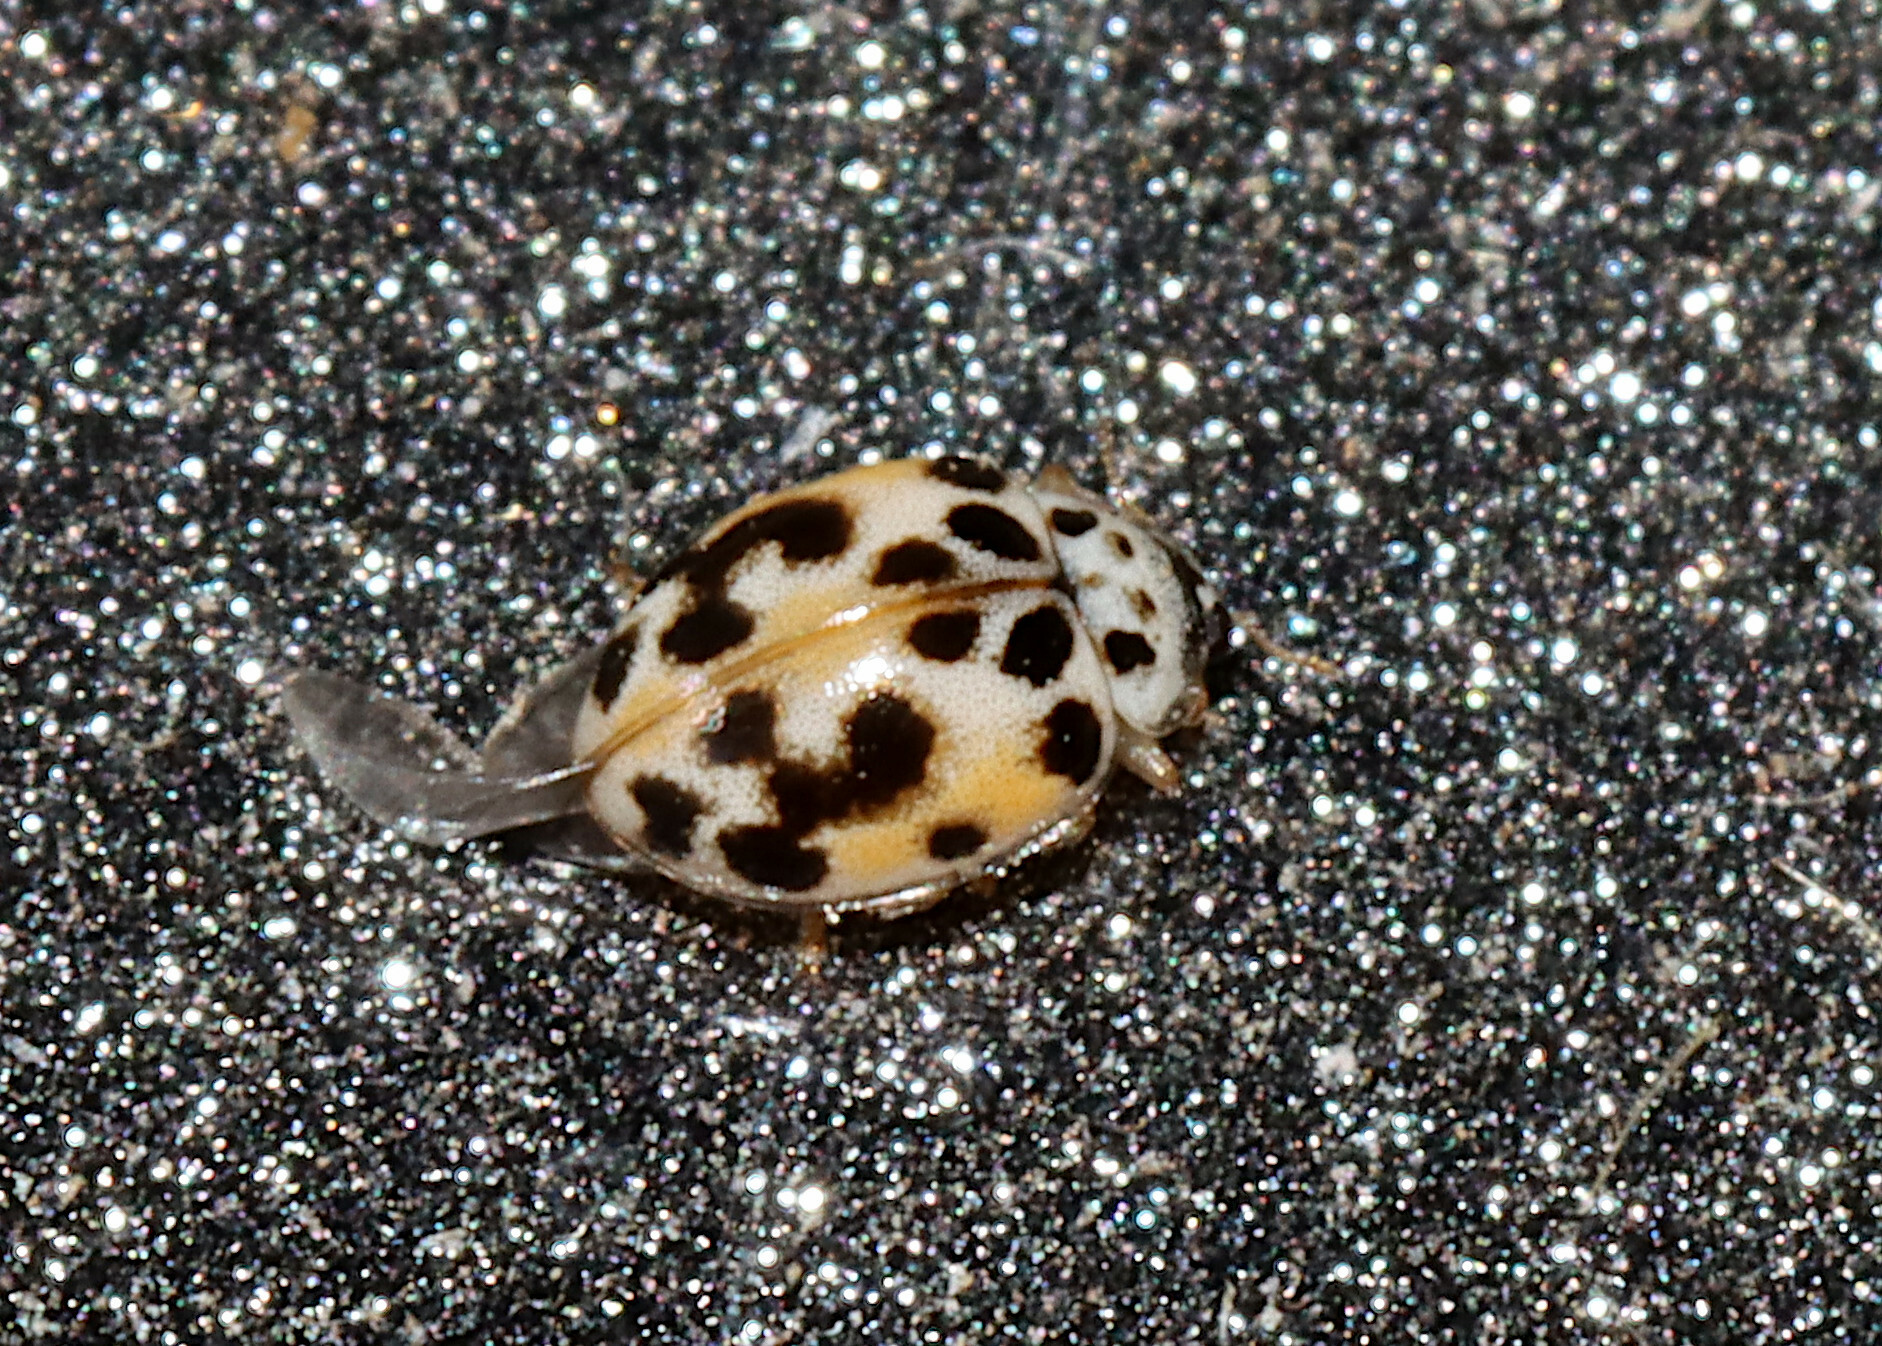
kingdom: Animalia
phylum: Arthropoda
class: Insecta
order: Coleoptera
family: Coccinellidae
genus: Psyllobora
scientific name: Psyllobora vigintimaculata
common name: Ladybird beetle
